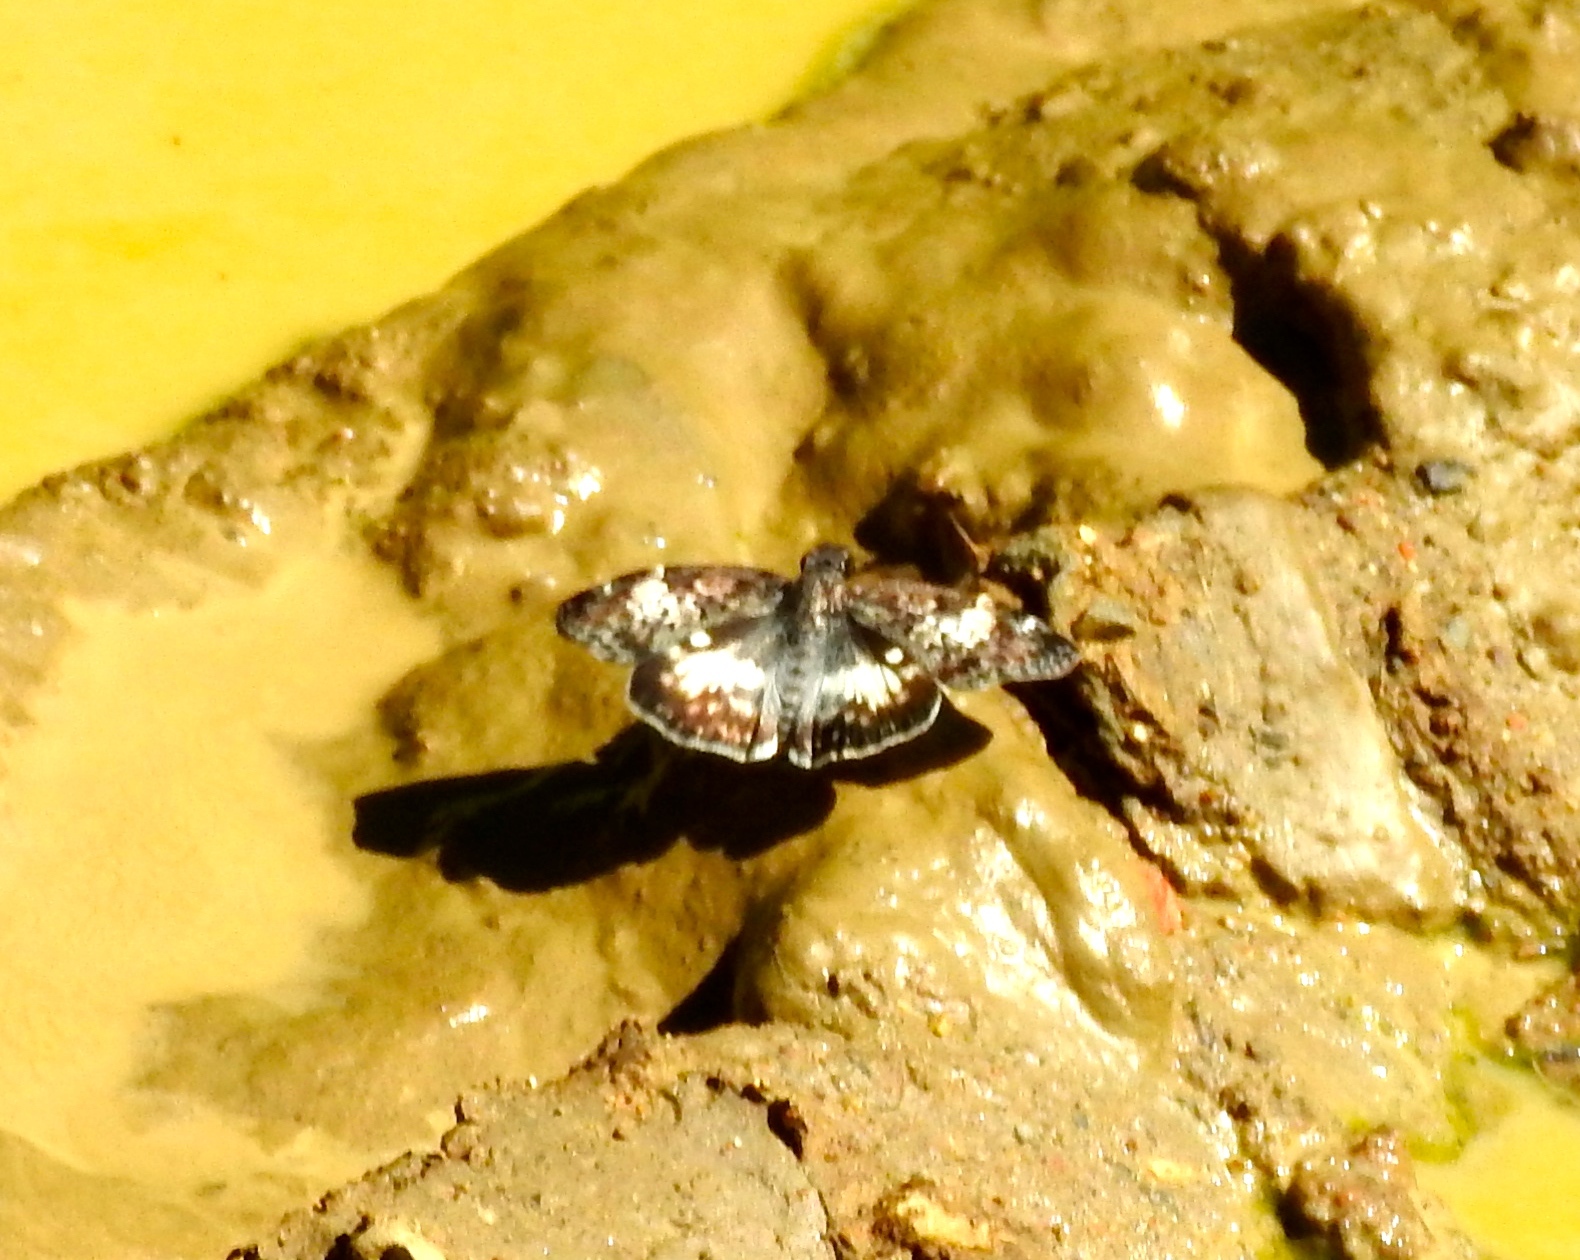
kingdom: Animalia
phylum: Arthropoda
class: Insecta
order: Lepidoptera
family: Hesperiidae
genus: Chiothion
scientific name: Chiothion georgina
